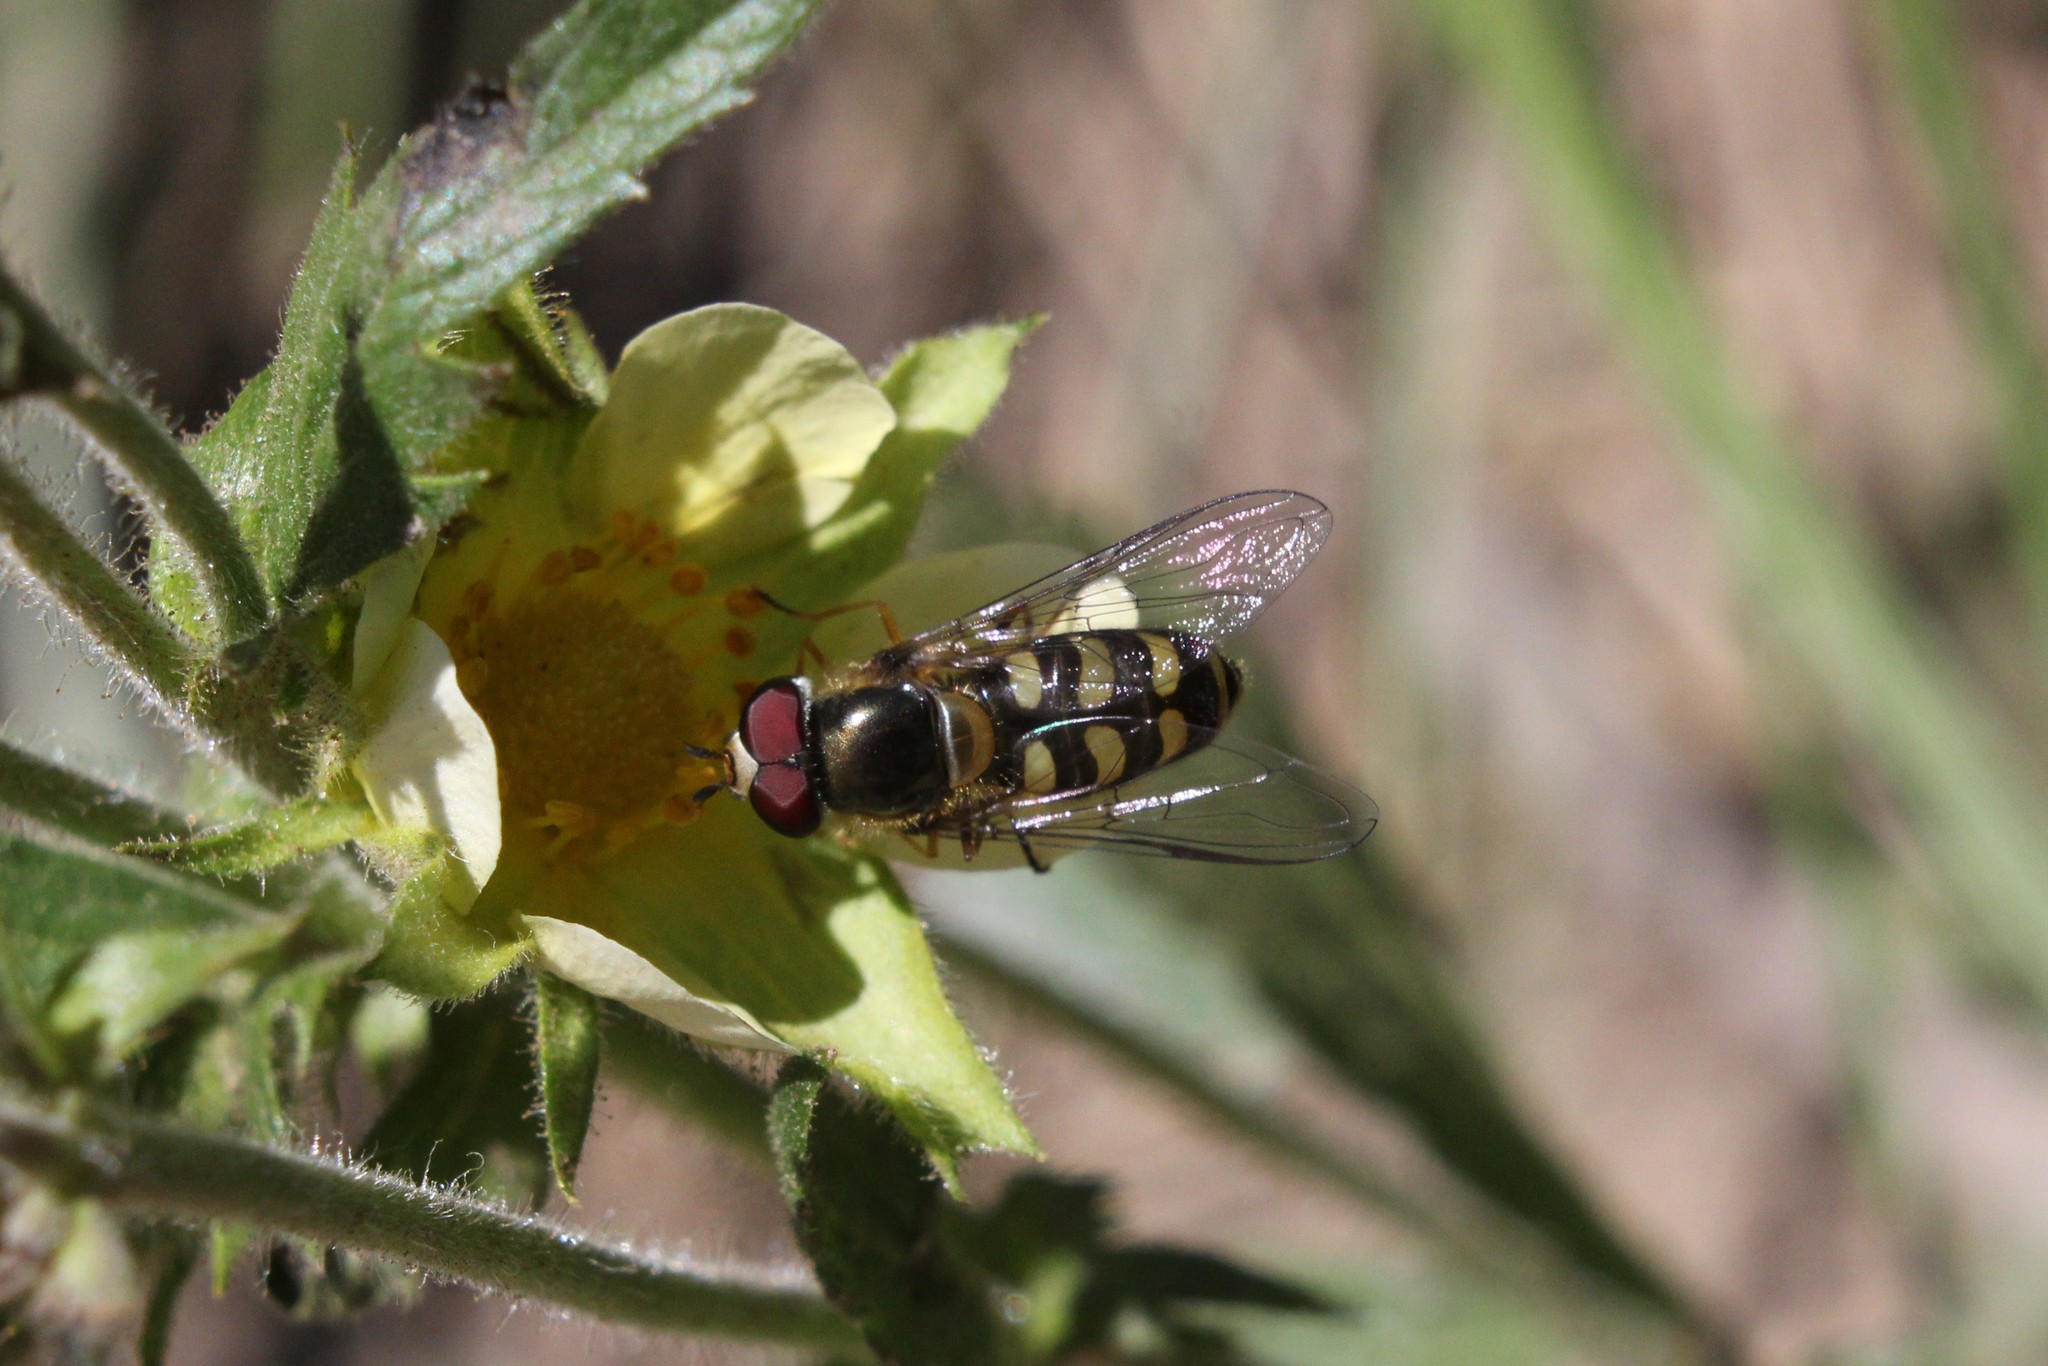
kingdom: Animalia
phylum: Arthropoda
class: Insecta
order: Diptera
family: Syrphidae
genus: Lapposyrphus
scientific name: Lapposyrphus lapponicus
